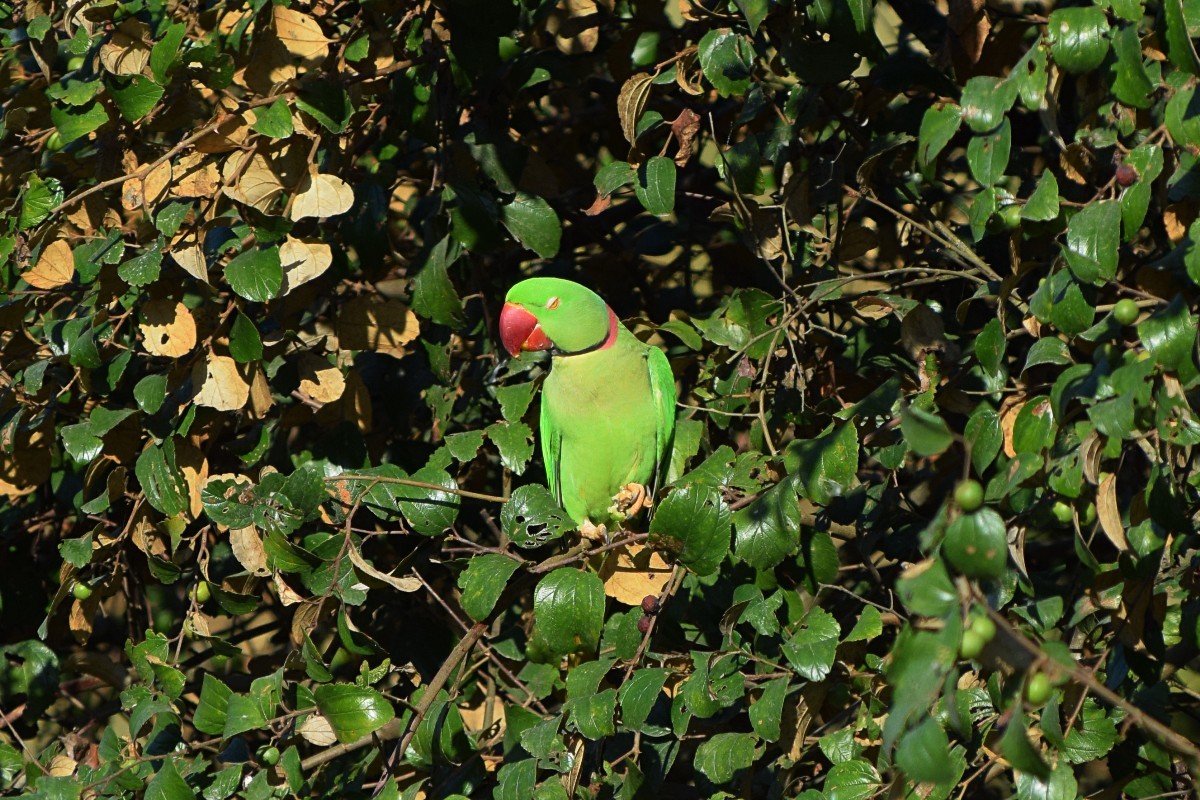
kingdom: Animalia
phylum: Chordata
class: Aves
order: Psittaciformes
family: Psittacidae
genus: Psittacula
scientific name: Psittacula eupatria
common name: Alexandrine parakeet
